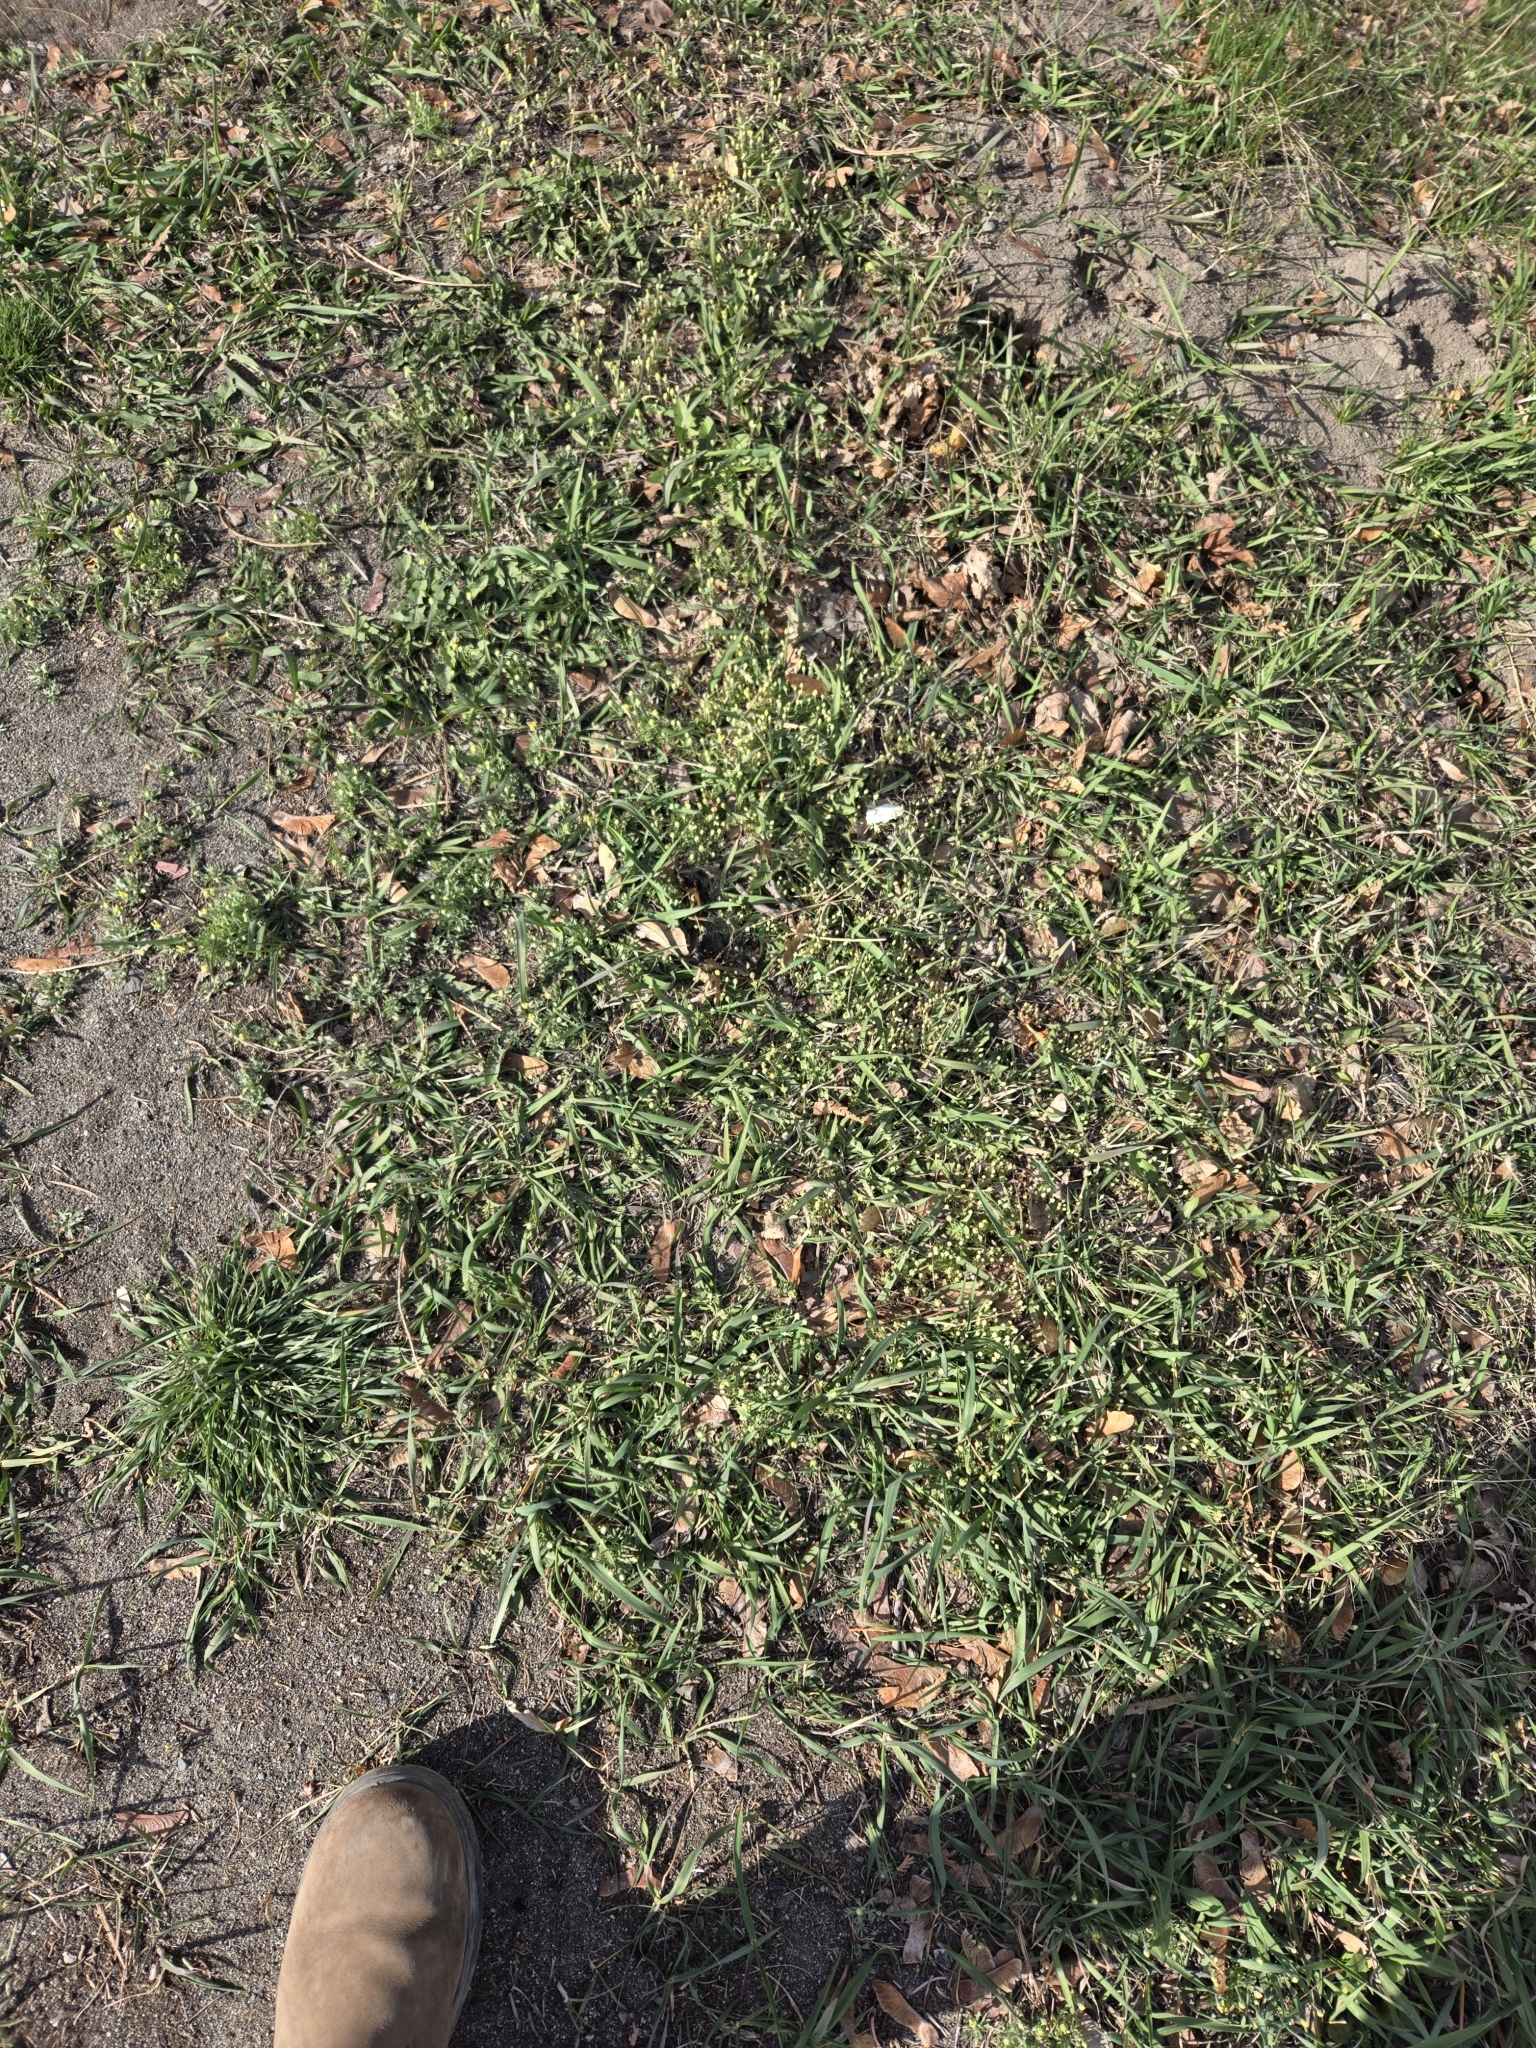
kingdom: Plantae
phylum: Tracheophyta
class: Magnoliopsida
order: Ranunculales
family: Ranunculaceae
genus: Ceratocephala
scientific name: Ceratocephala orthoceras
